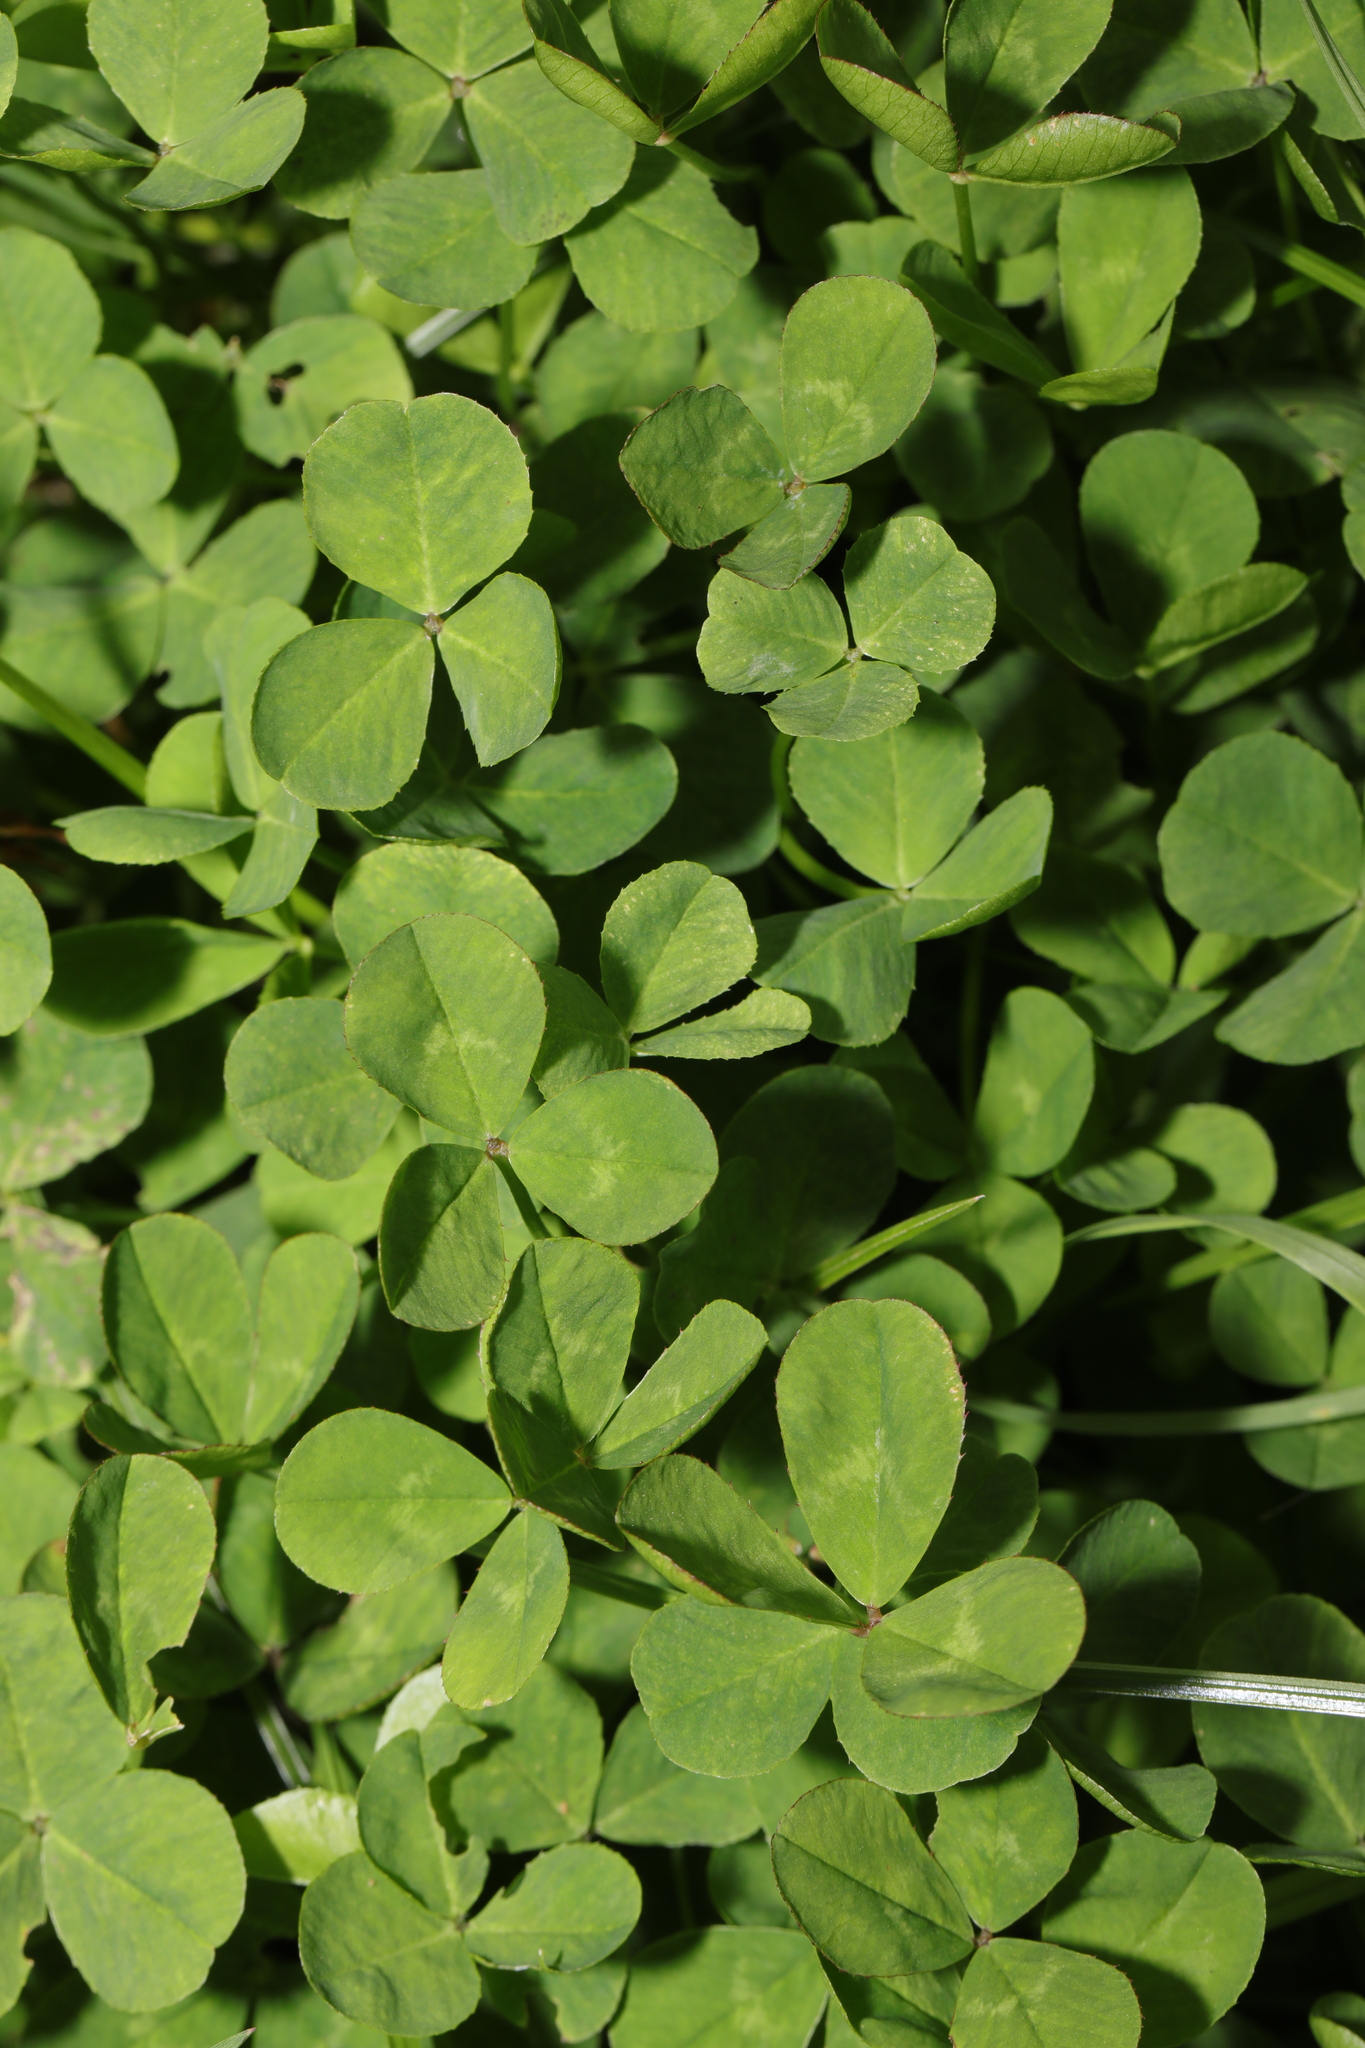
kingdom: Plantae
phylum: Tracheophyta
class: Magnoliopsida
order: Fabales
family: Fabaceae
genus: Trifolium
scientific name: Trifolium repens
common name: White clover
